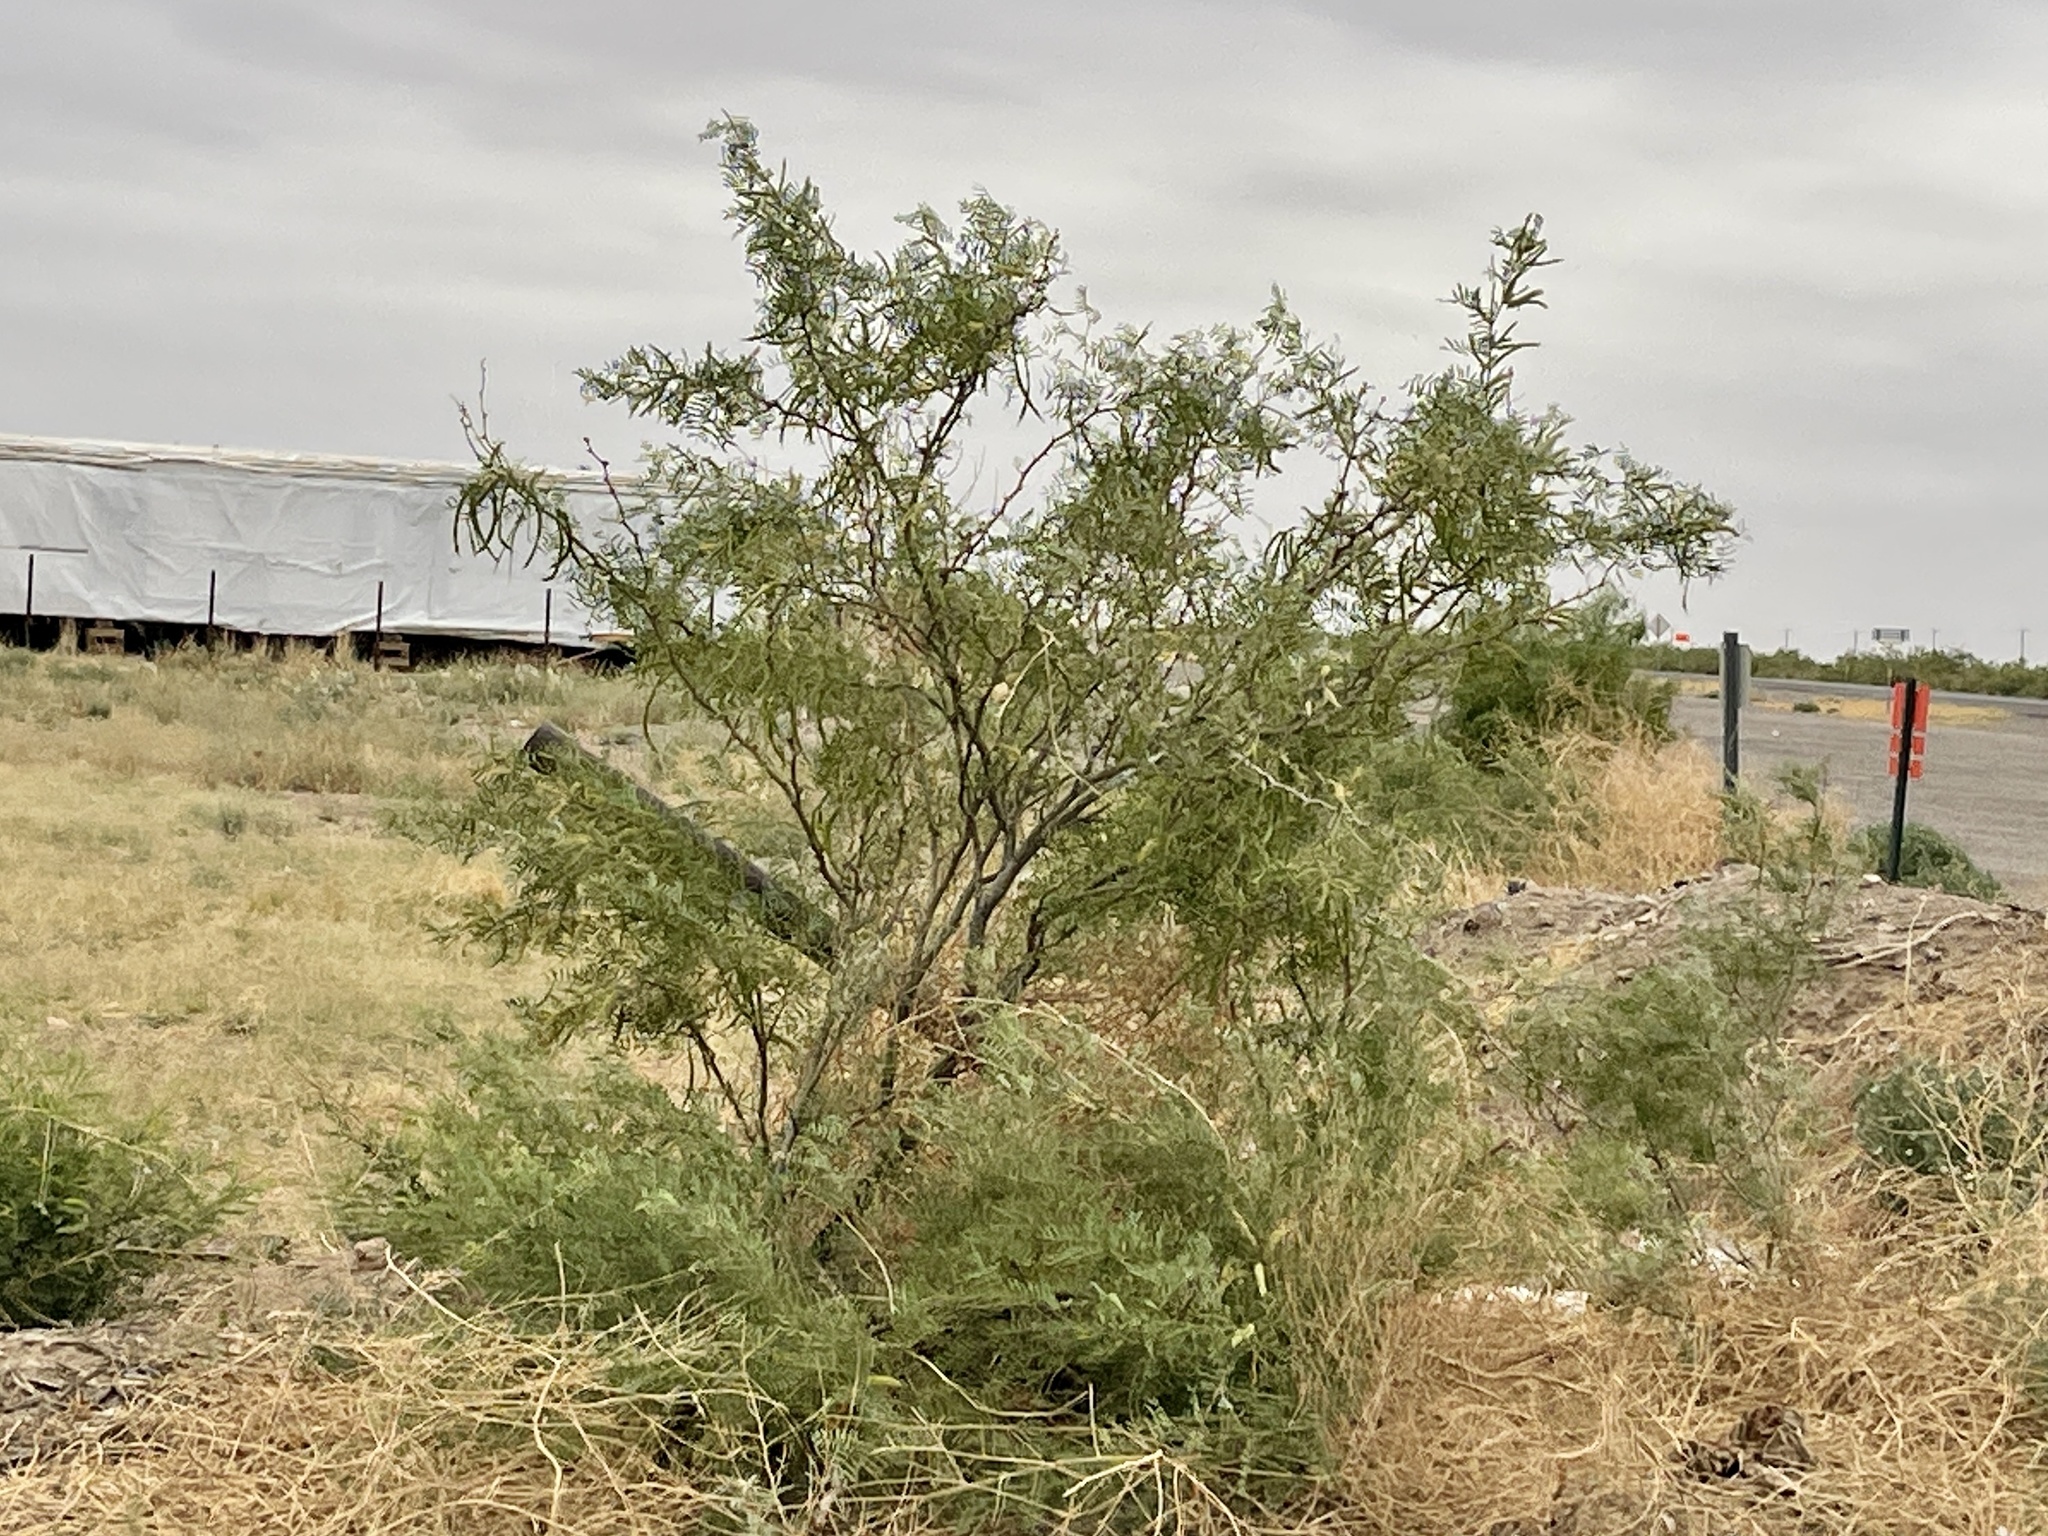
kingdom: Plantae
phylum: Tracheophyta
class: Magnoliopsida
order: Fabales
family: Fabaceae
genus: Prosopis
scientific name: Prosopis glandulosa
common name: Honey mesquite
